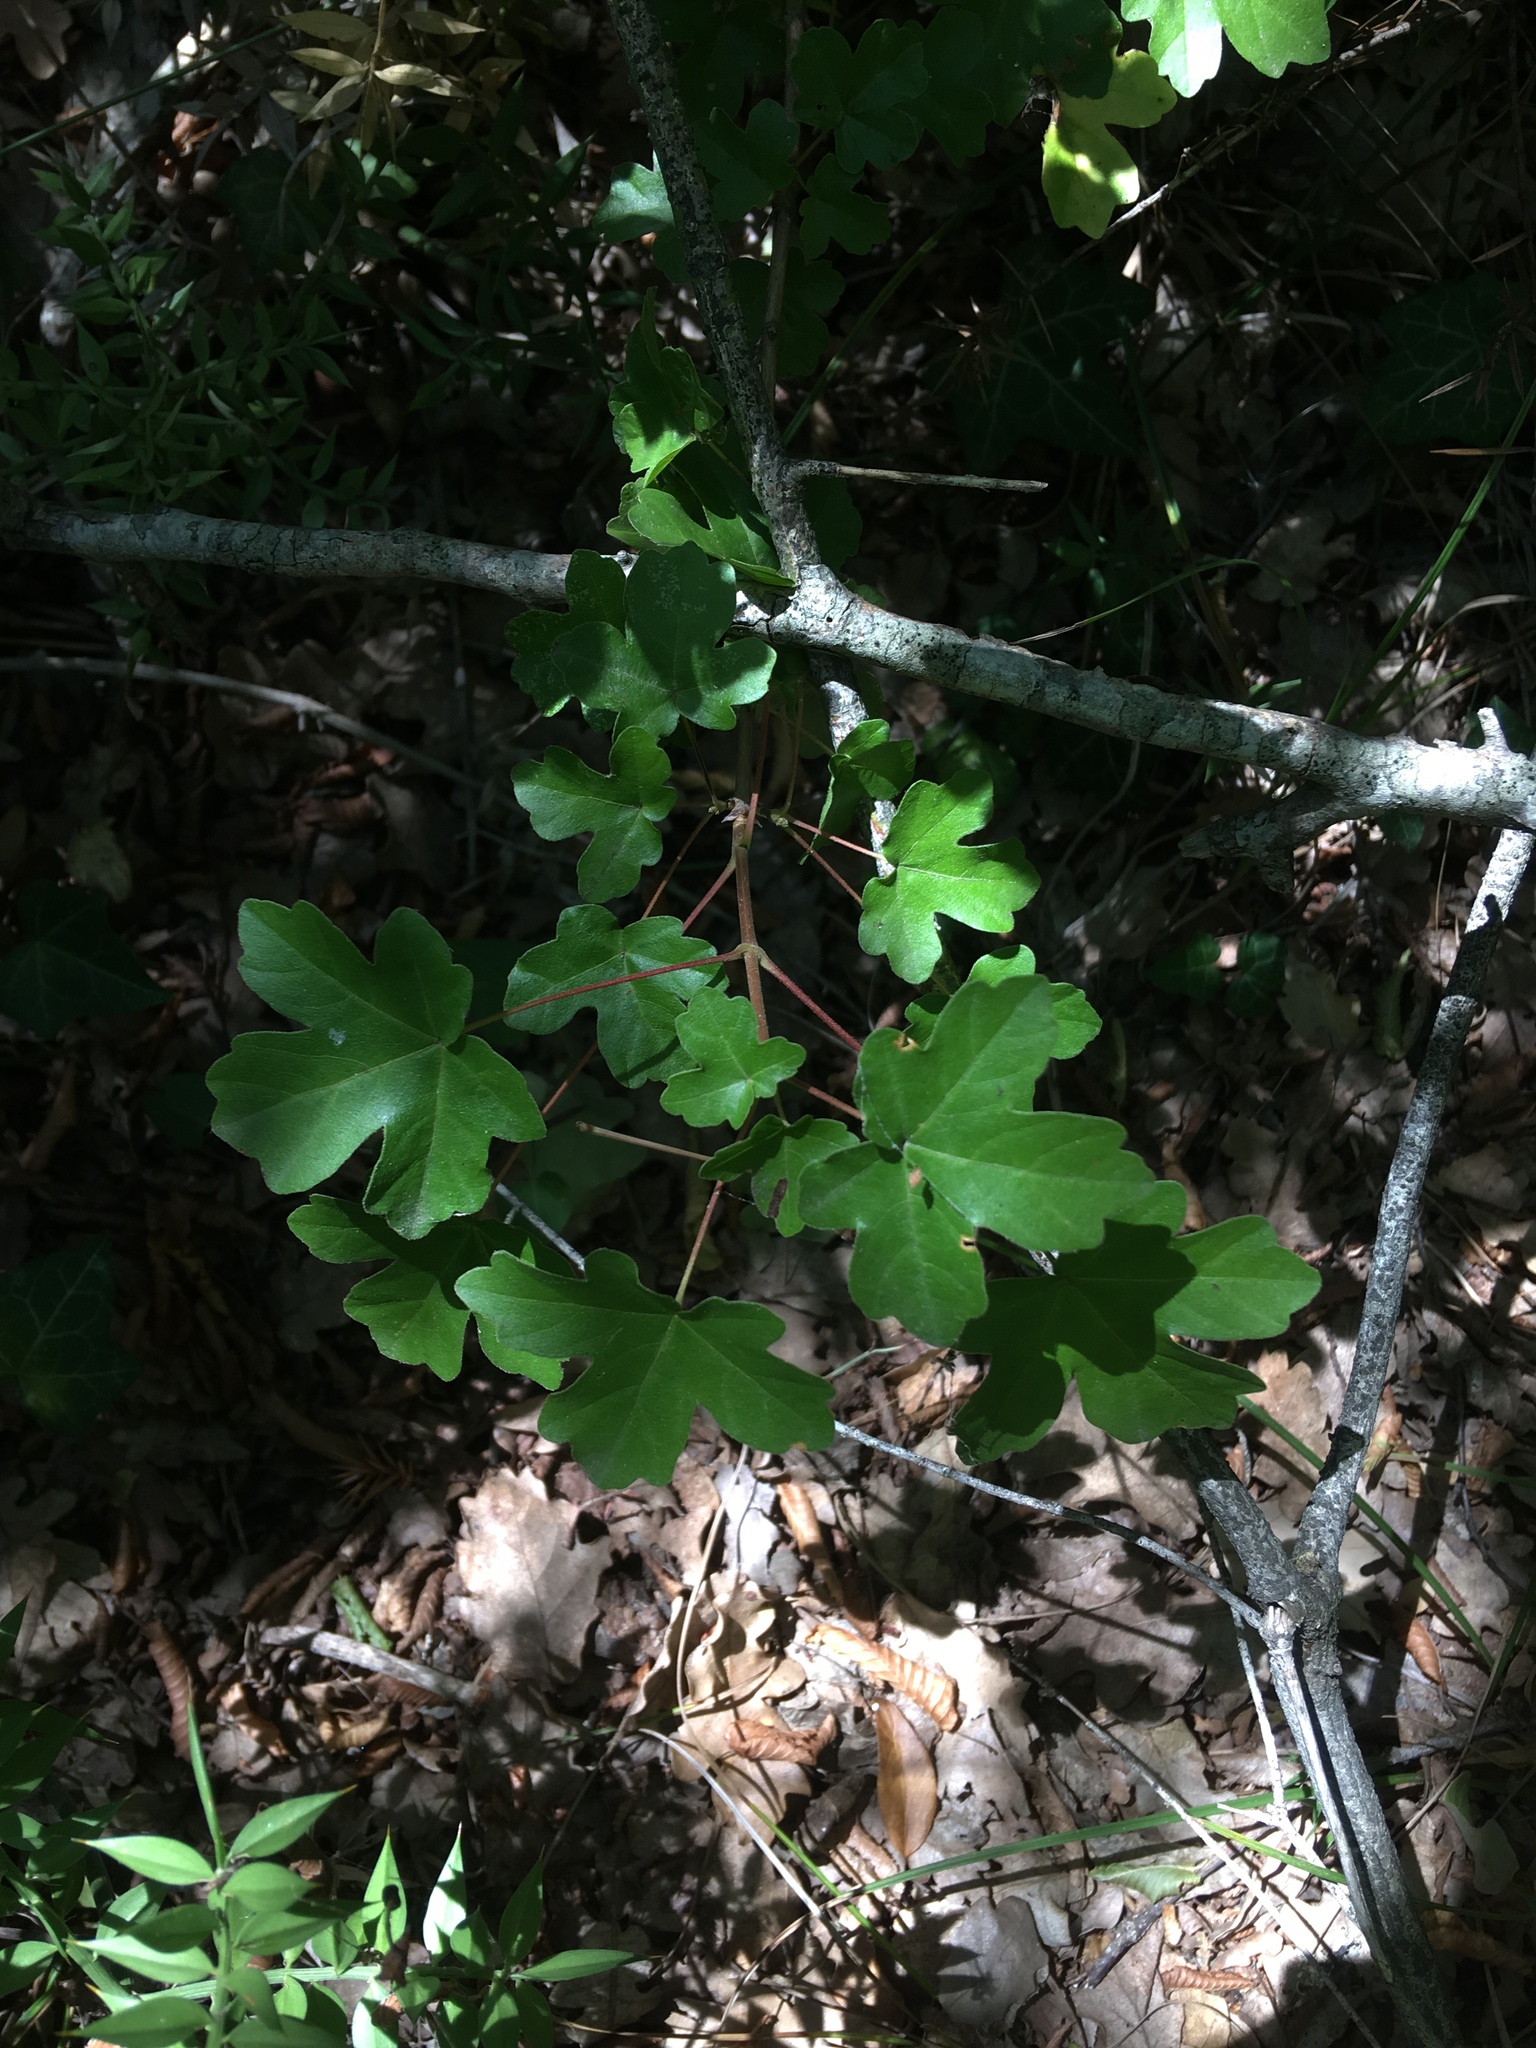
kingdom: Plantae
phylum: Tracheophyta
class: Magnoliopsida
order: Sapindales
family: Sapindaceae
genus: Acer
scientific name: Acer campestre
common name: Field maple
